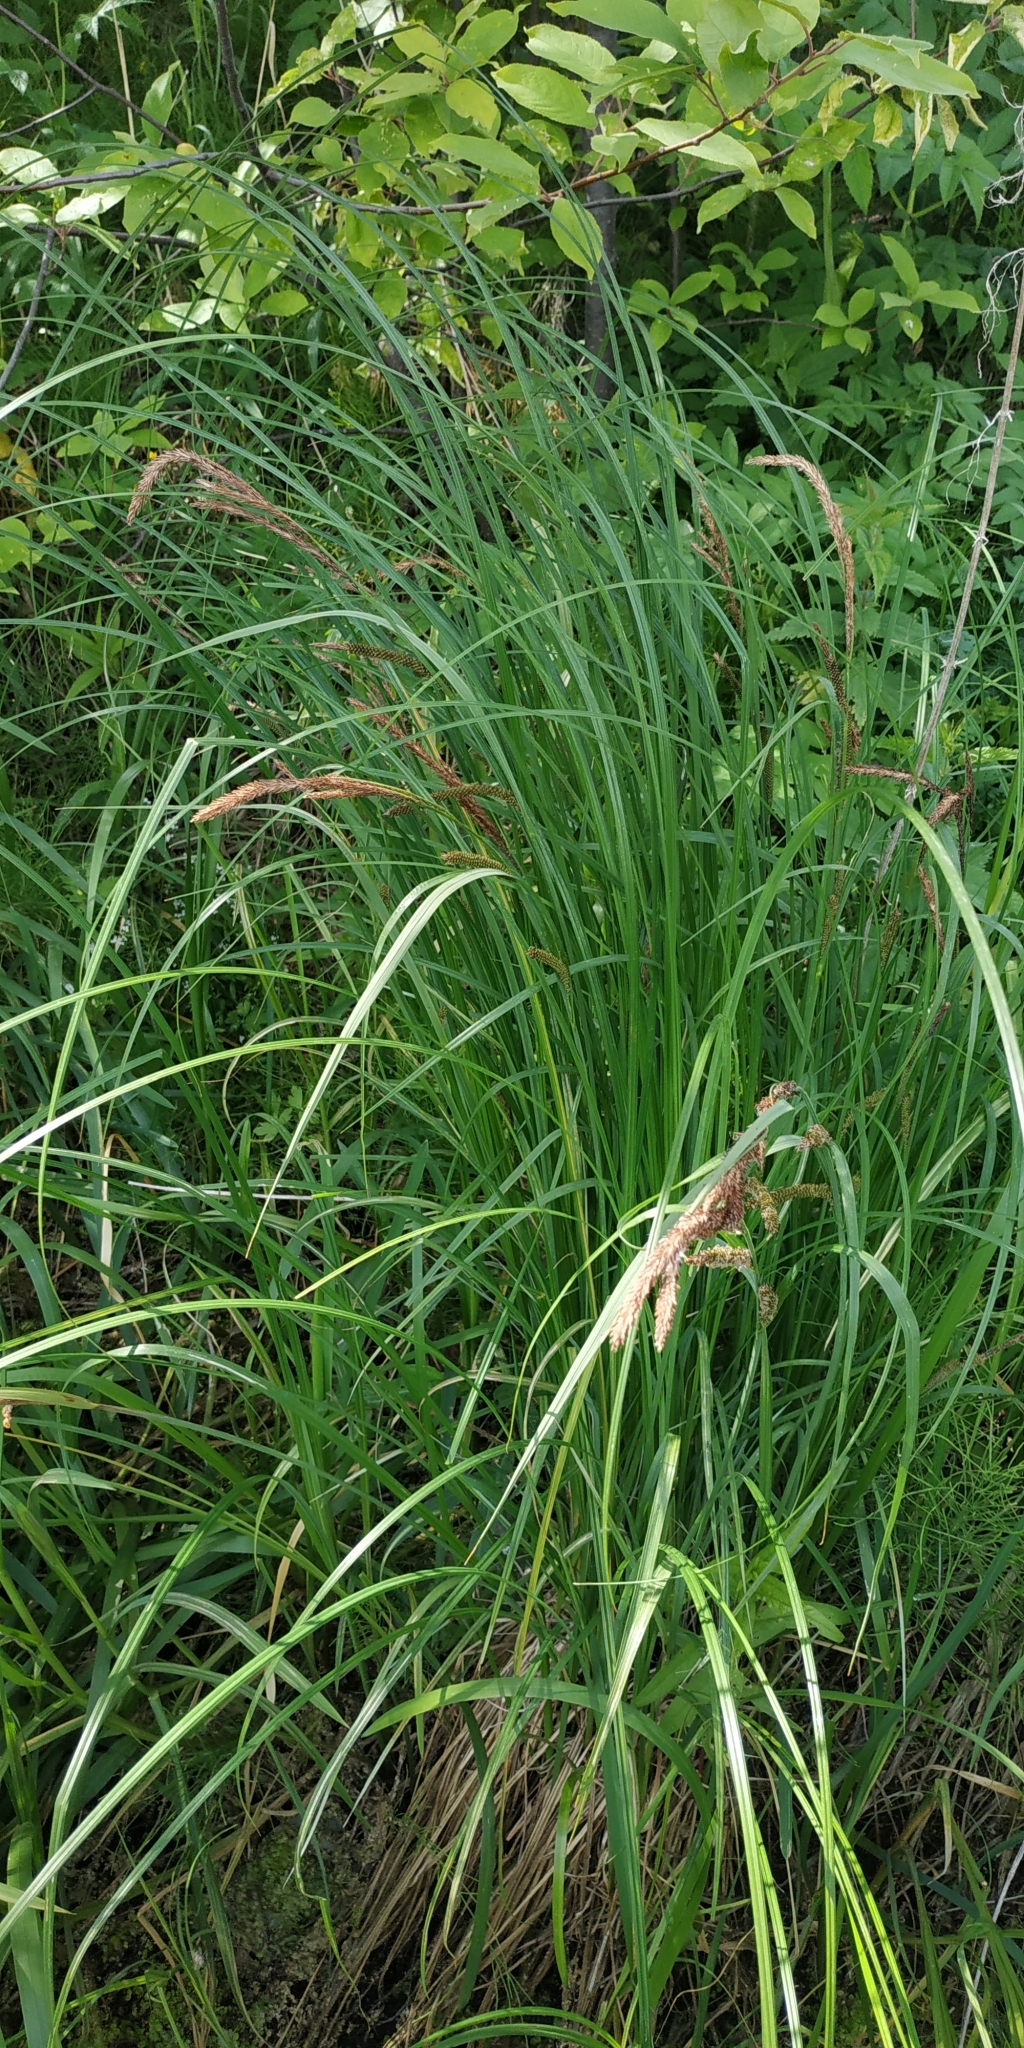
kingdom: Plantae
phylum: Tracheophyta
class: Liliopsida
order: Poales
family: Cyperaceae
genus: Carex
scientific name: Carex acuta
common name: Slender tufted-sedge
